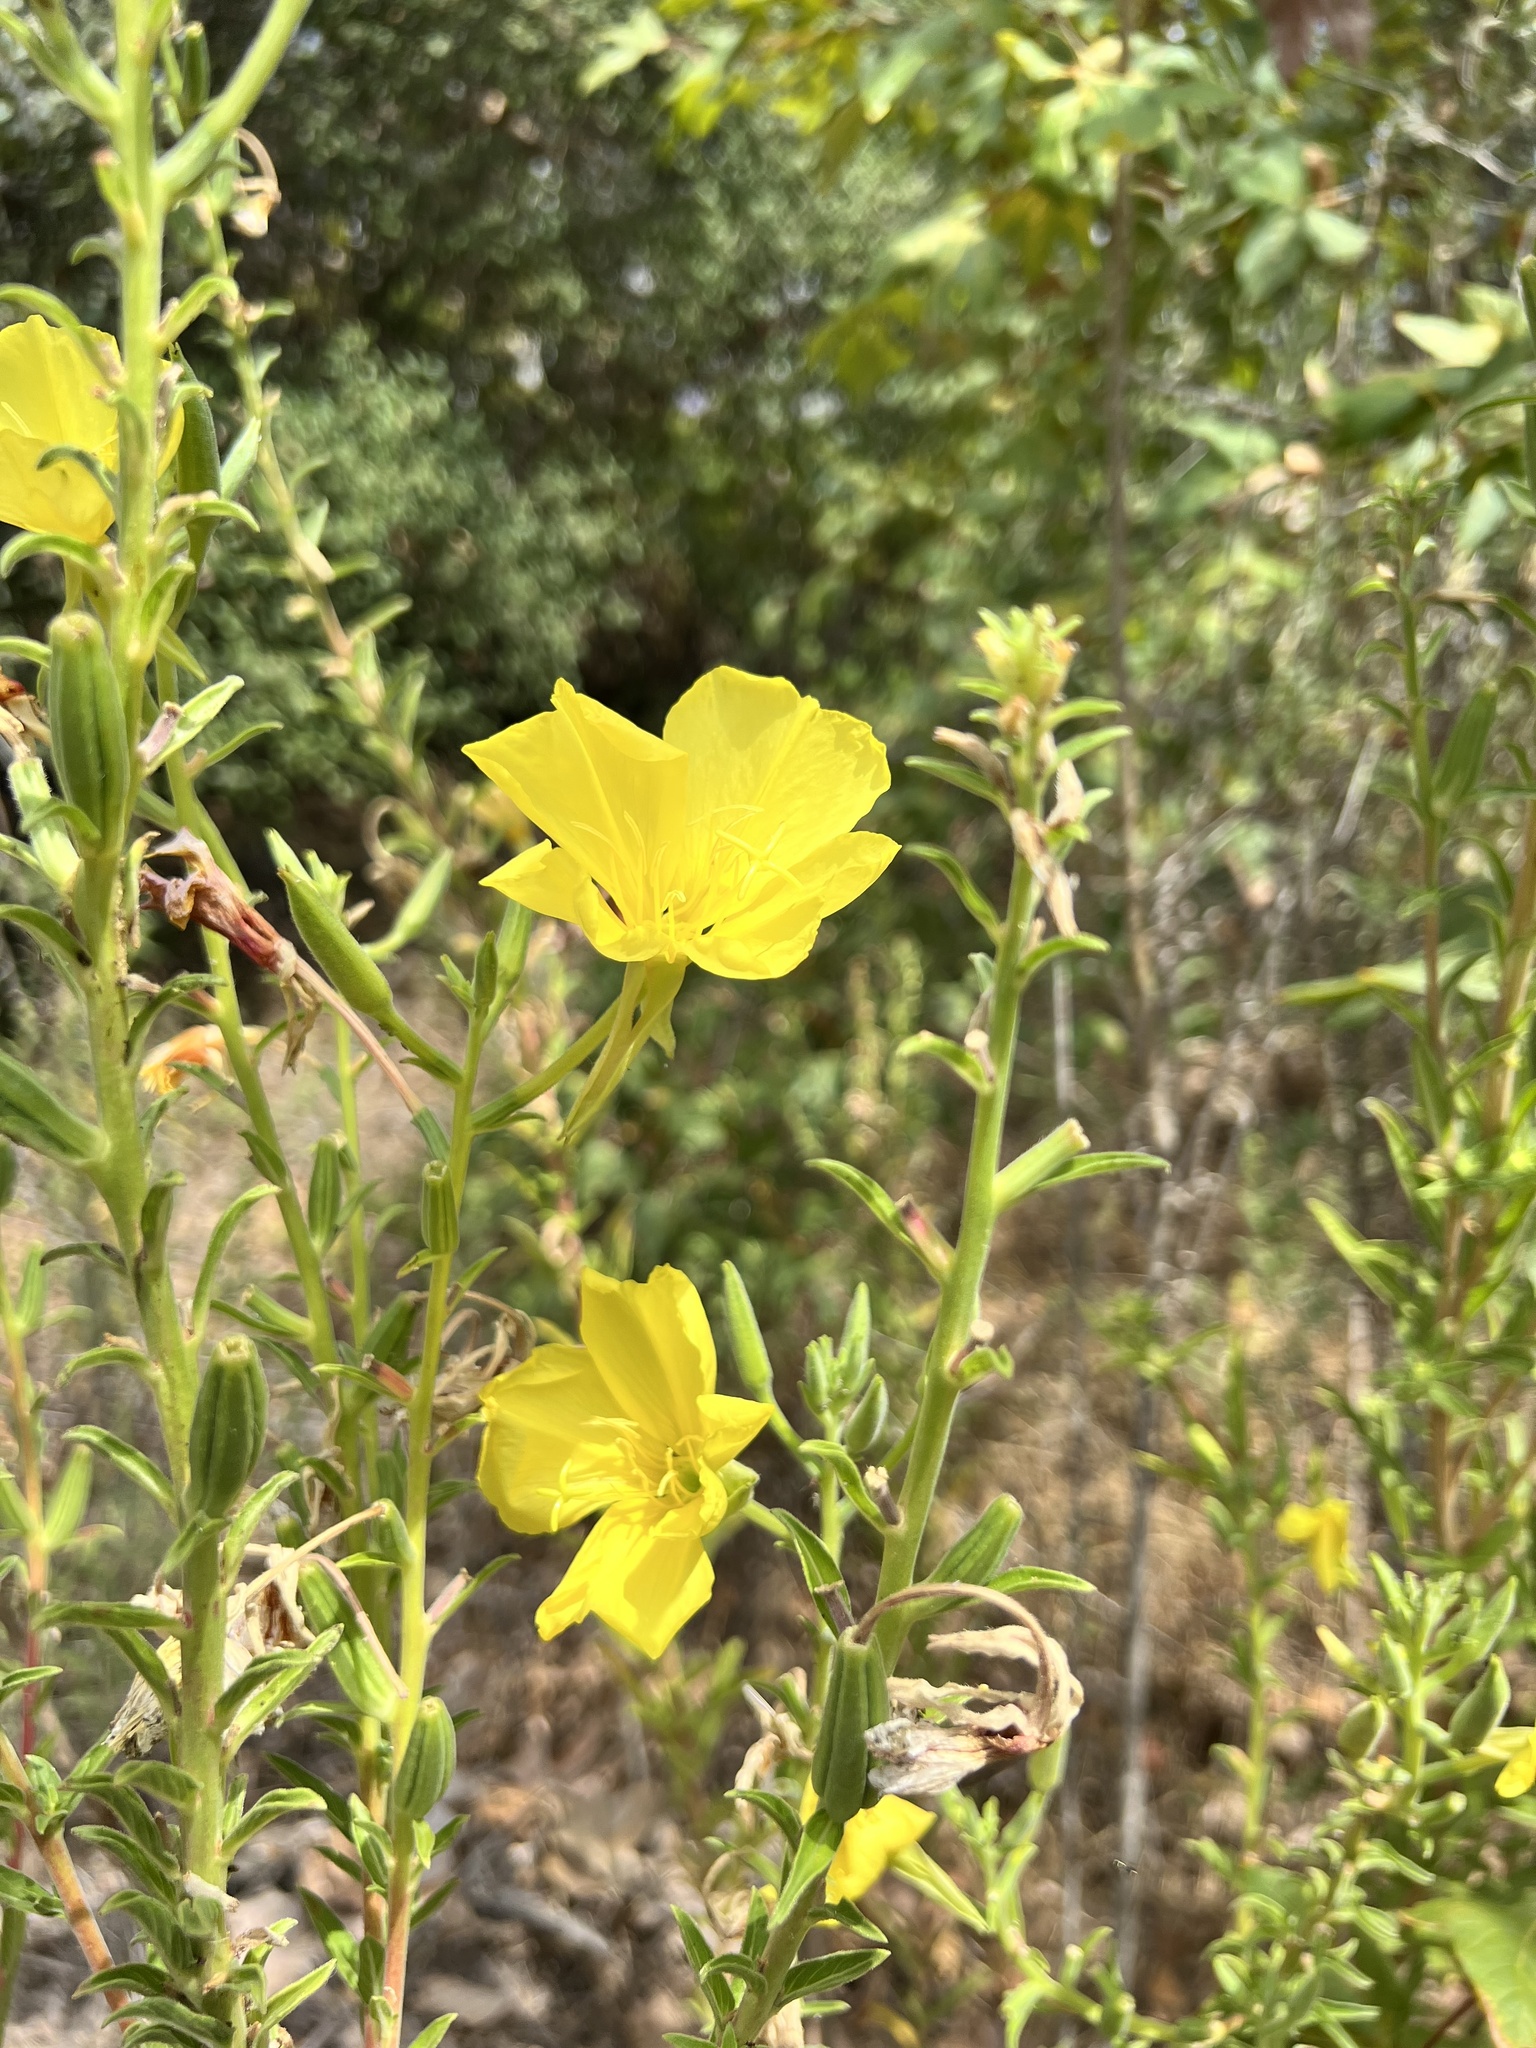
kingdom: Plantae
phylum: Tracheophyta
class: Magnoliopsida
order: Myrtales
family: Onagraceae
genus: Oenothera
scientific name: Oenothera elata
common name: Hooker's evening-primrose
